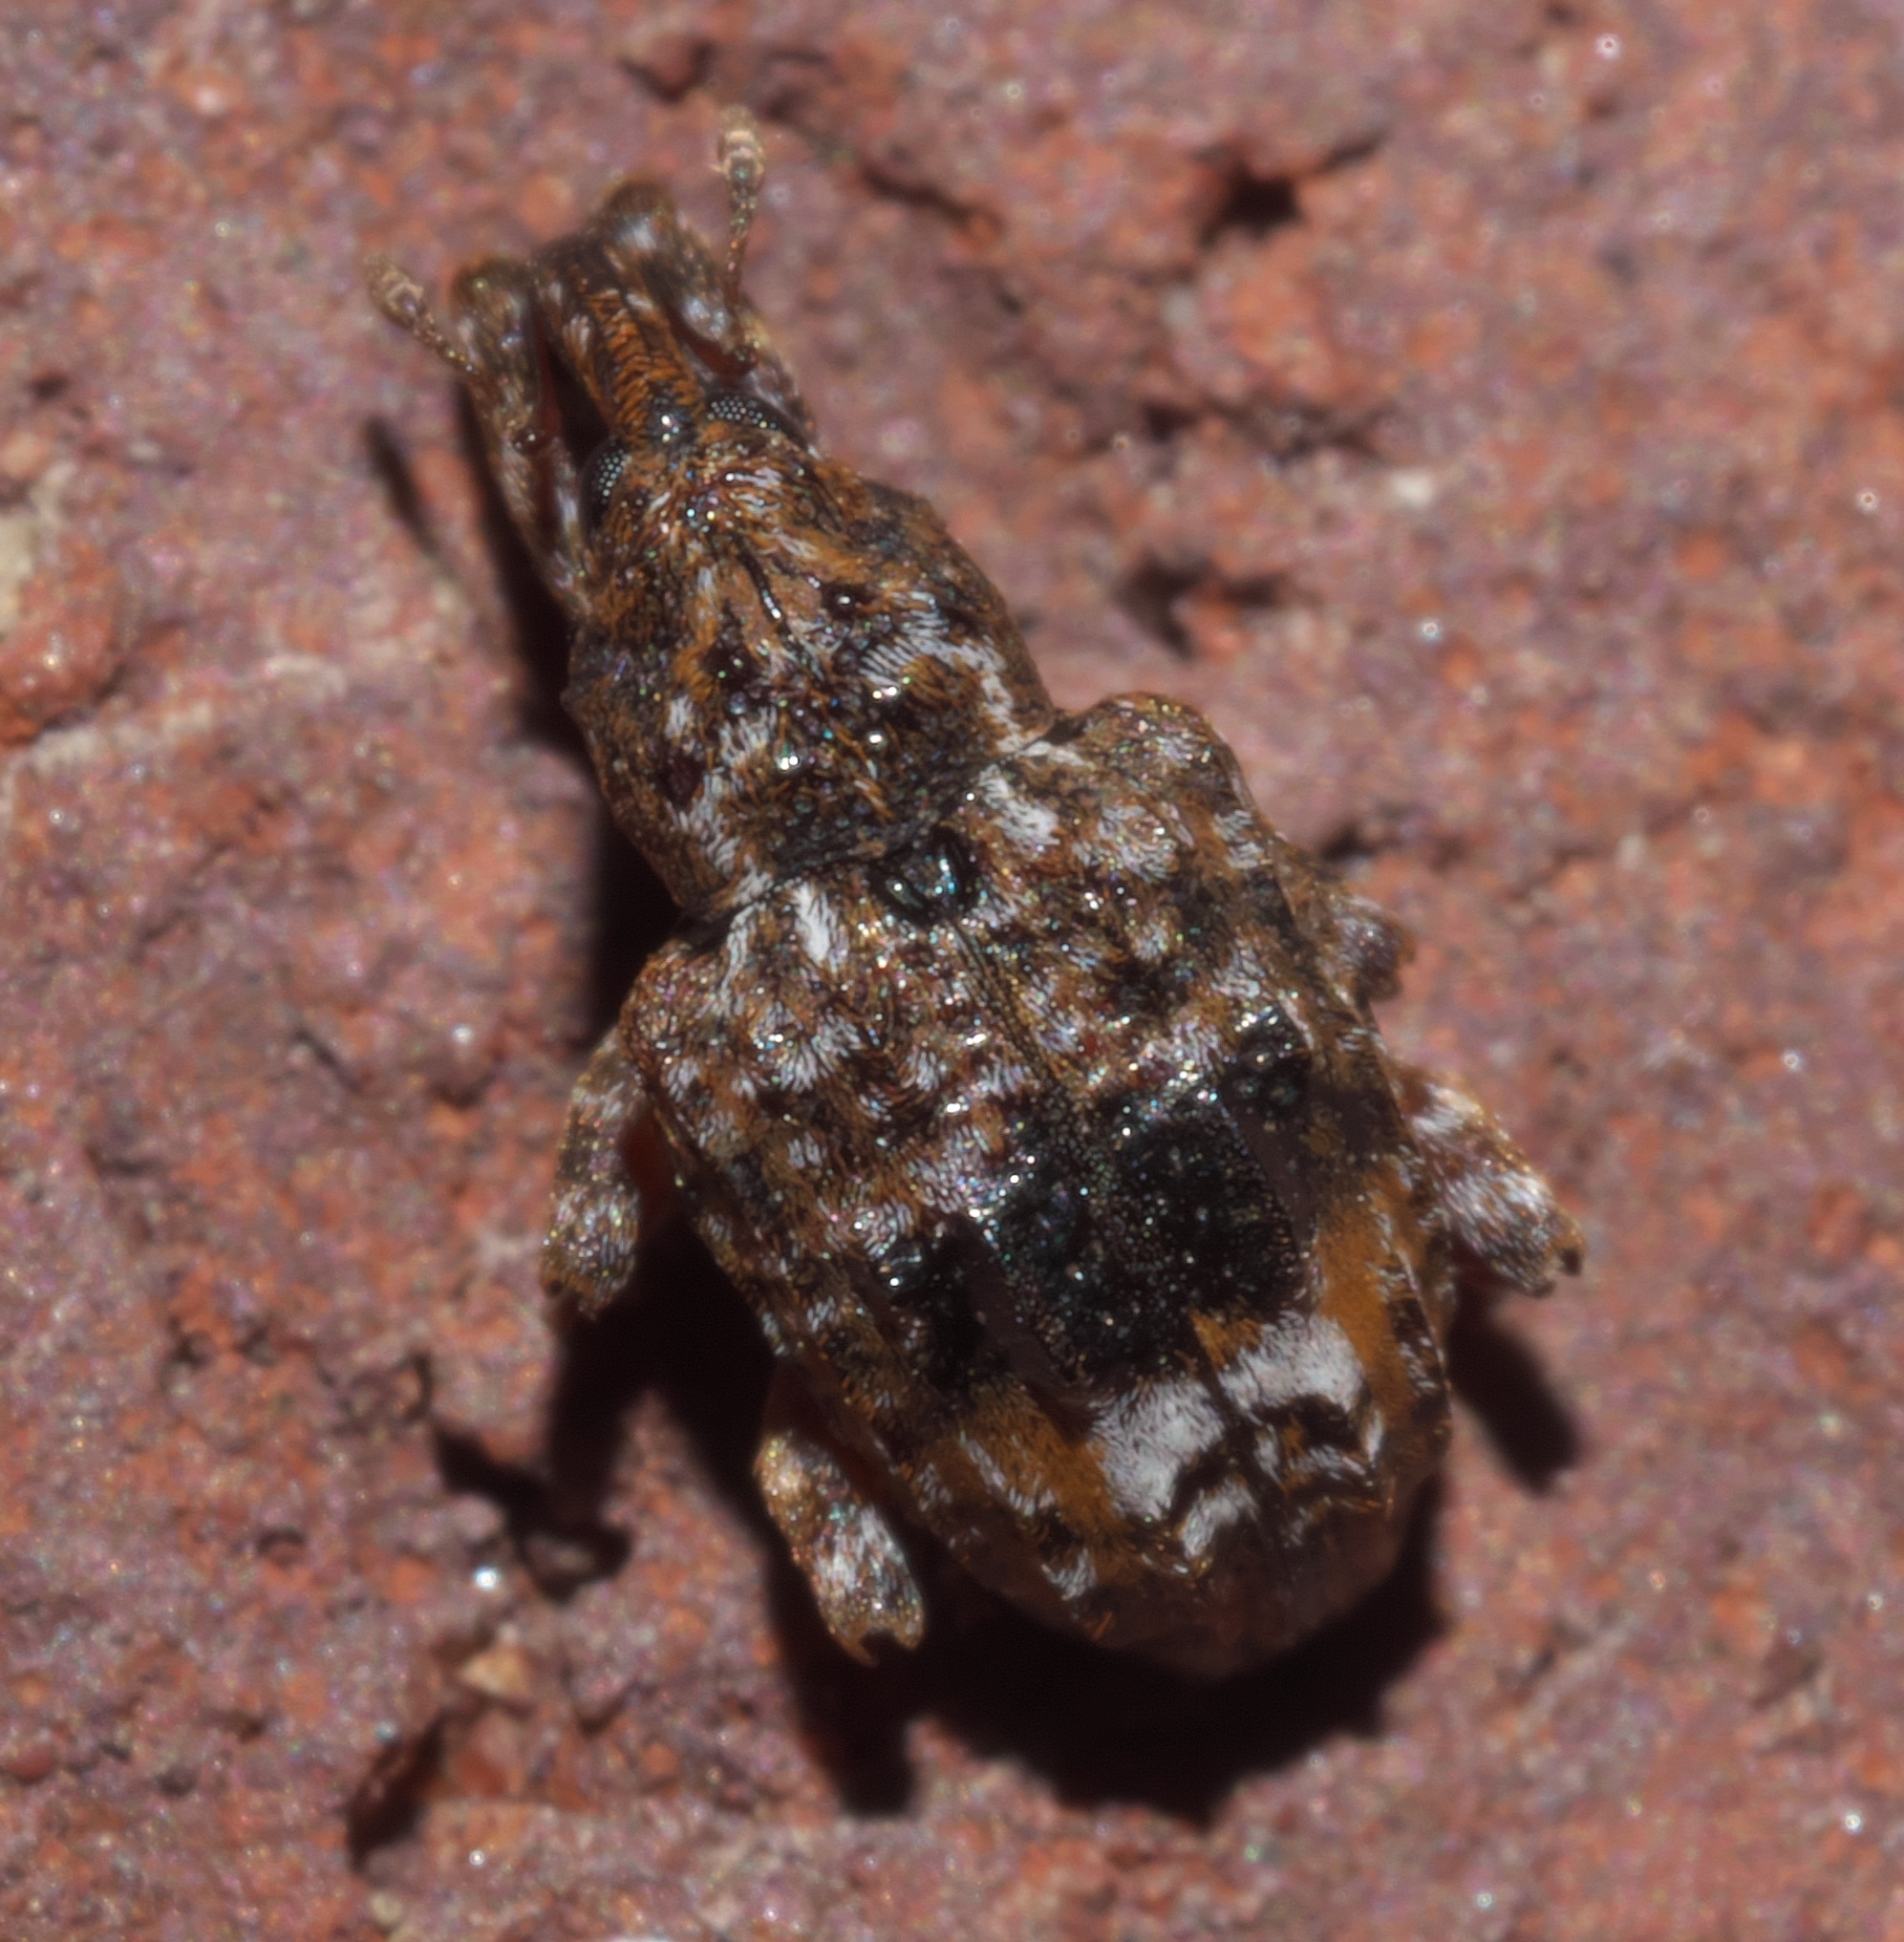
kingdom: Animalia
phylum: Arthropoda
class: Insecta
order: Coleoptera
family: Curculionidae
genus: Conotrachelus
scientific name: Conotrachelus nenuphar
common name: Plum curculio
